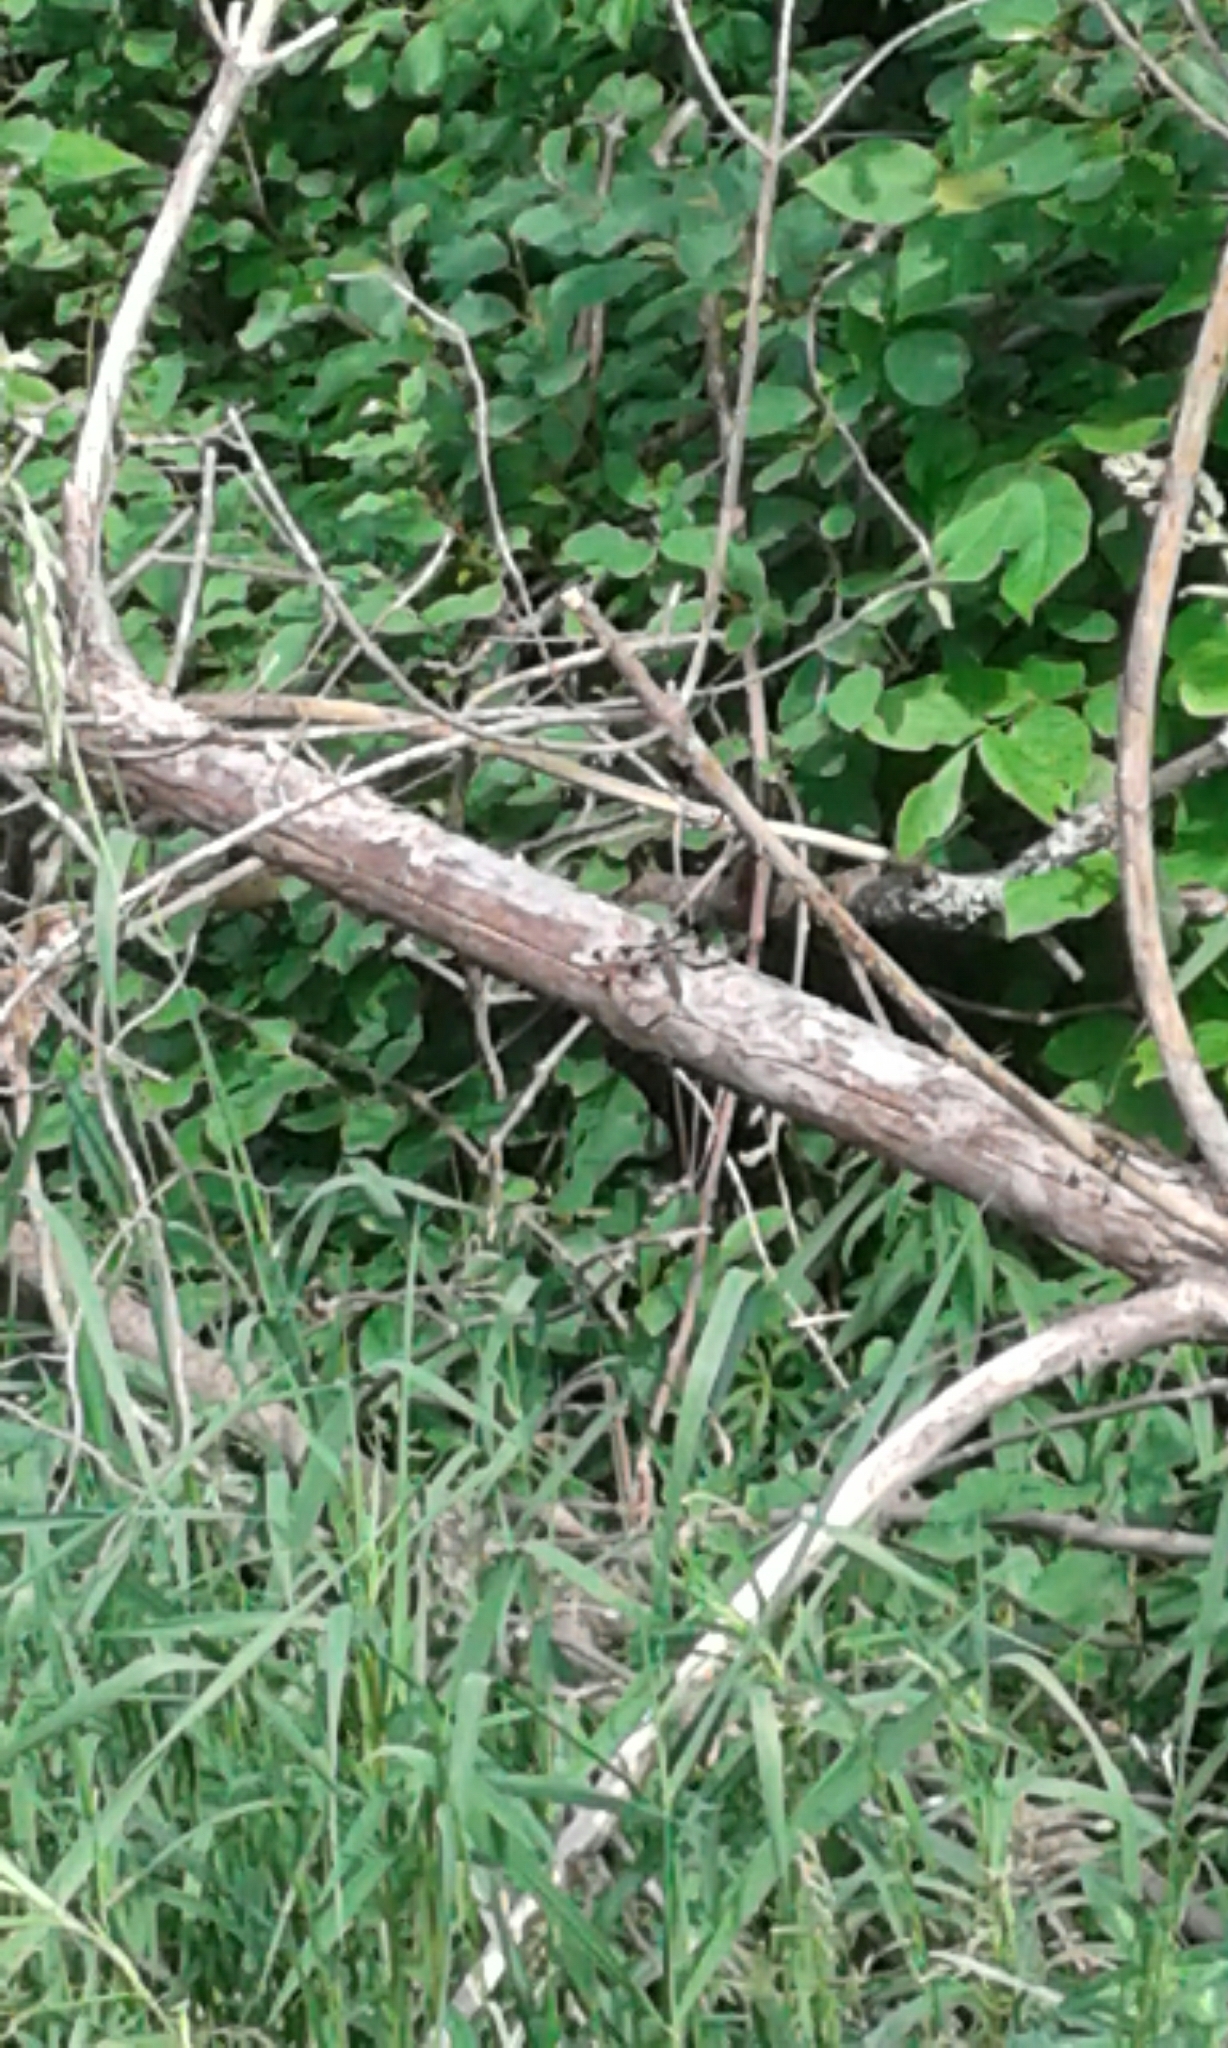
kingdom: Animalia
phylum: Arthropoda
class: Insecta
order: Odonata
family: Libellulidae
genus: Plathemis
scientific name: Plathemis lydia
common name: Common whitetail
